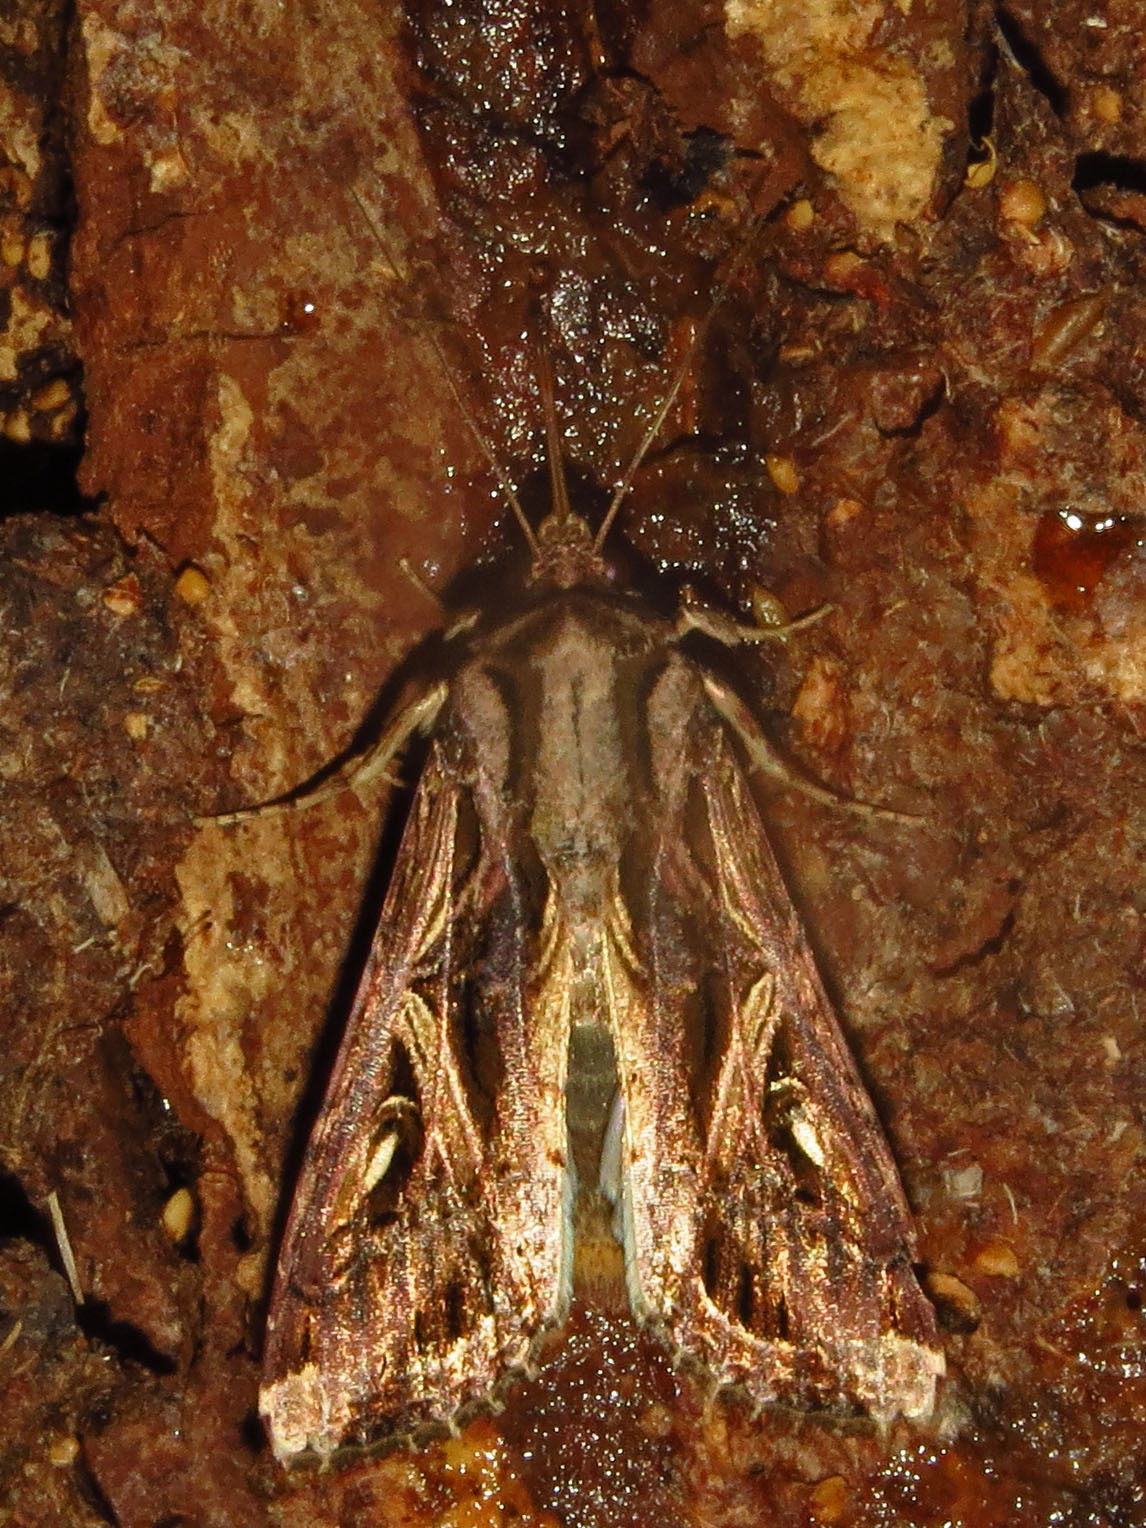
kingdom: Animalia
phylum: Arthropoda
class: Insecta
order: Lepidoptera
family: Noctuidae
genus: Spodoptera
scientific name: Spodoptera dolichos
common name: Sweetpotato armyworm
